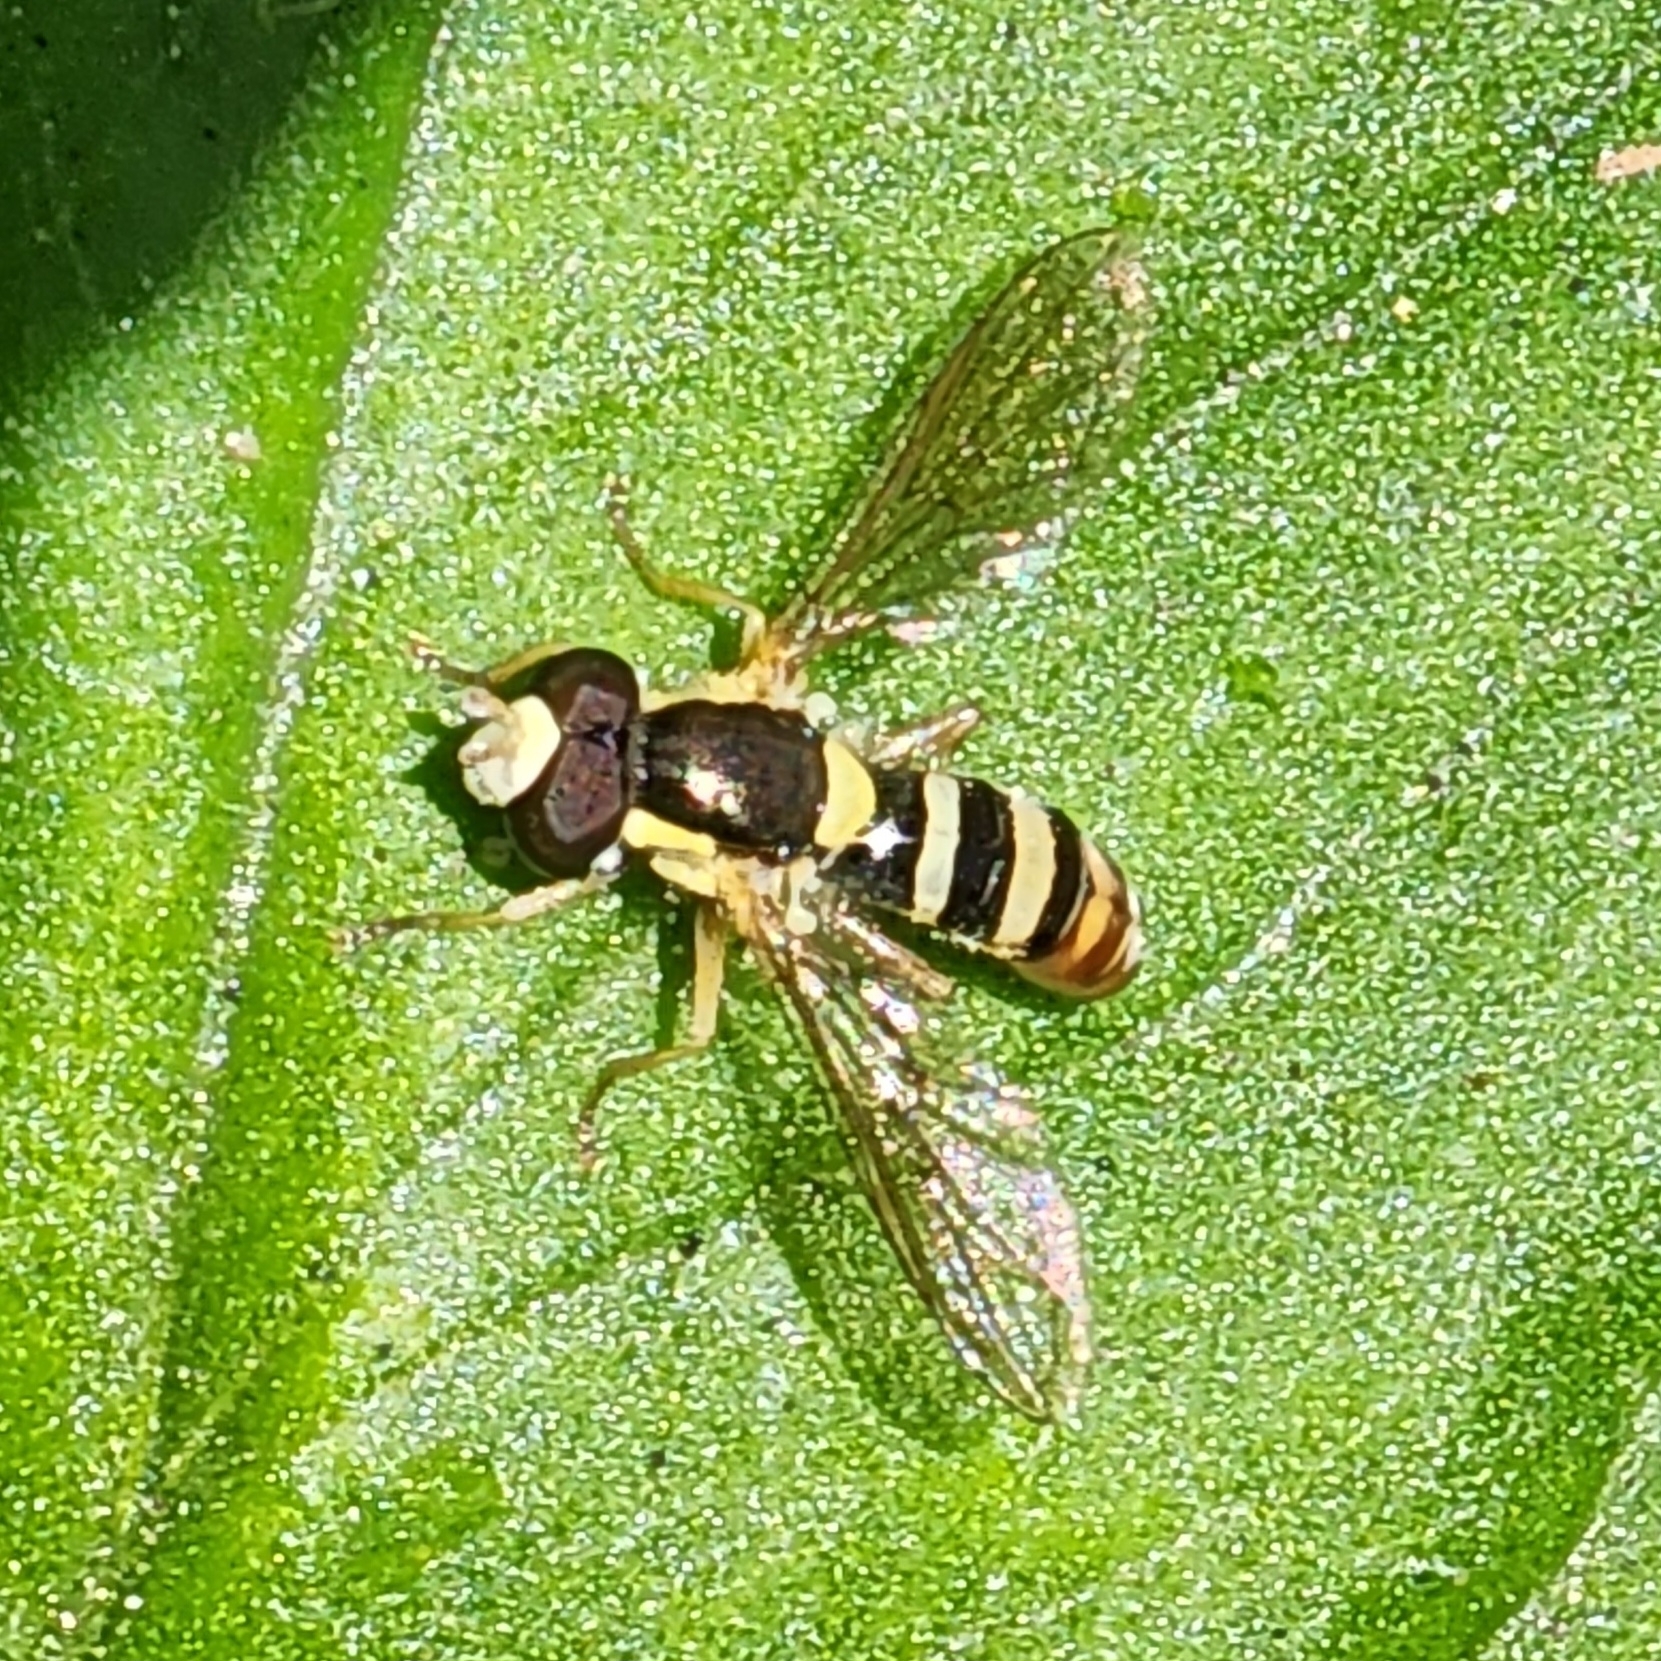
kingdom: Animalia
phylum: Arthropoda
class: Insecta
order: Diptera
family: Syrphidae
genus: Sphaerophoria
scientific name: Sphaerophoria sulphuripes
